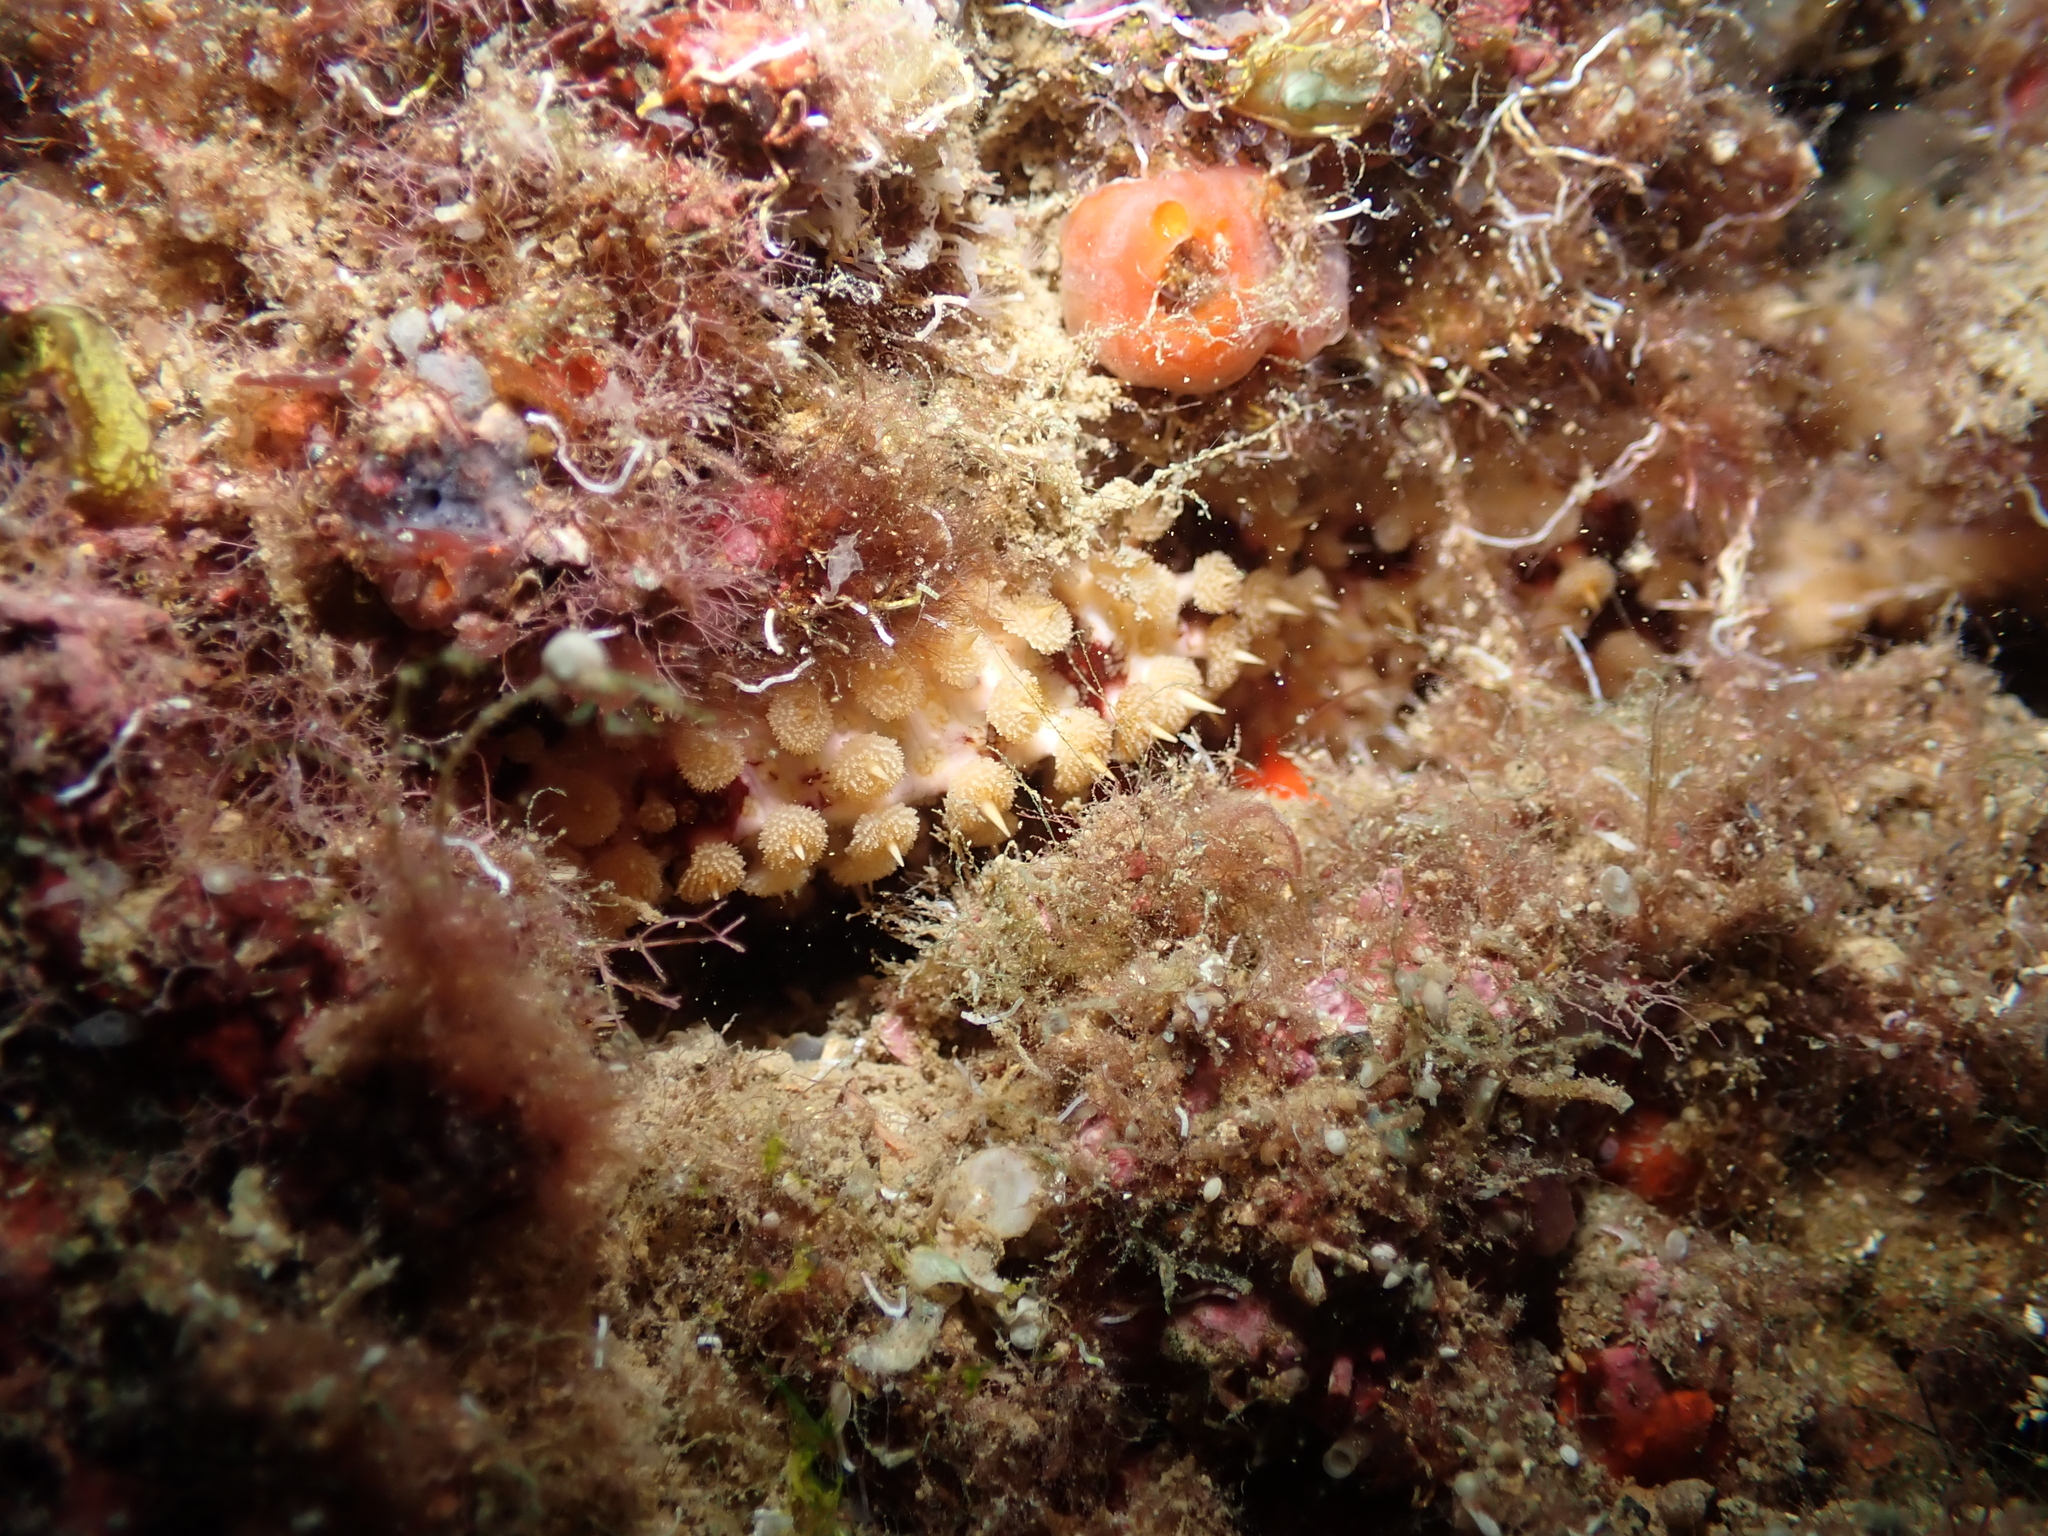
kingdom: Animalia
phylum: Echinodermata
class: Asteroidea
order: Forcipulatida
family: Asteriidae
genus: Marthasterias
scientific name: Marthasterias glacialis
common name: Spiny starfish
